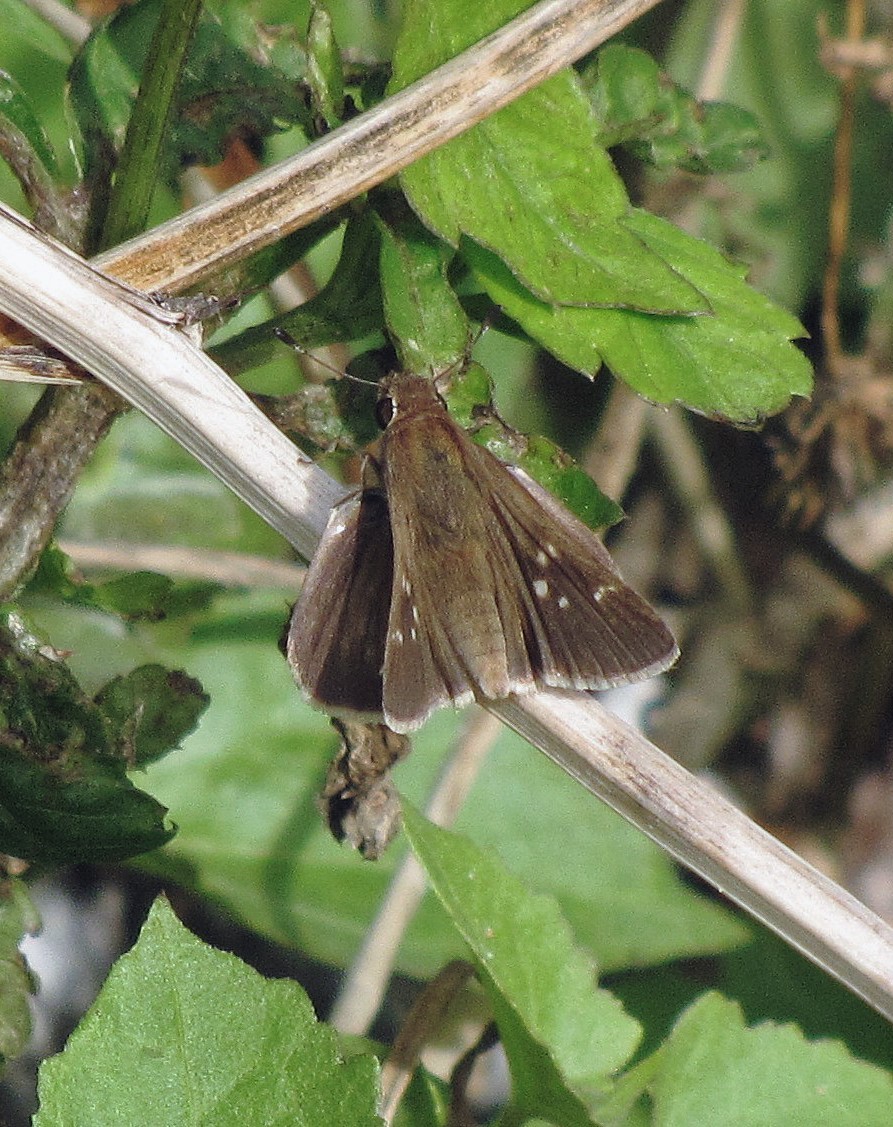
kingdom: Animalia
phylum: Arthropoda
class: Insecta
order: Lepidoptera
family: Hesperiidae
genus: Lerodea
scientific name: Lerodea eufala
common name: Eufala skipper
